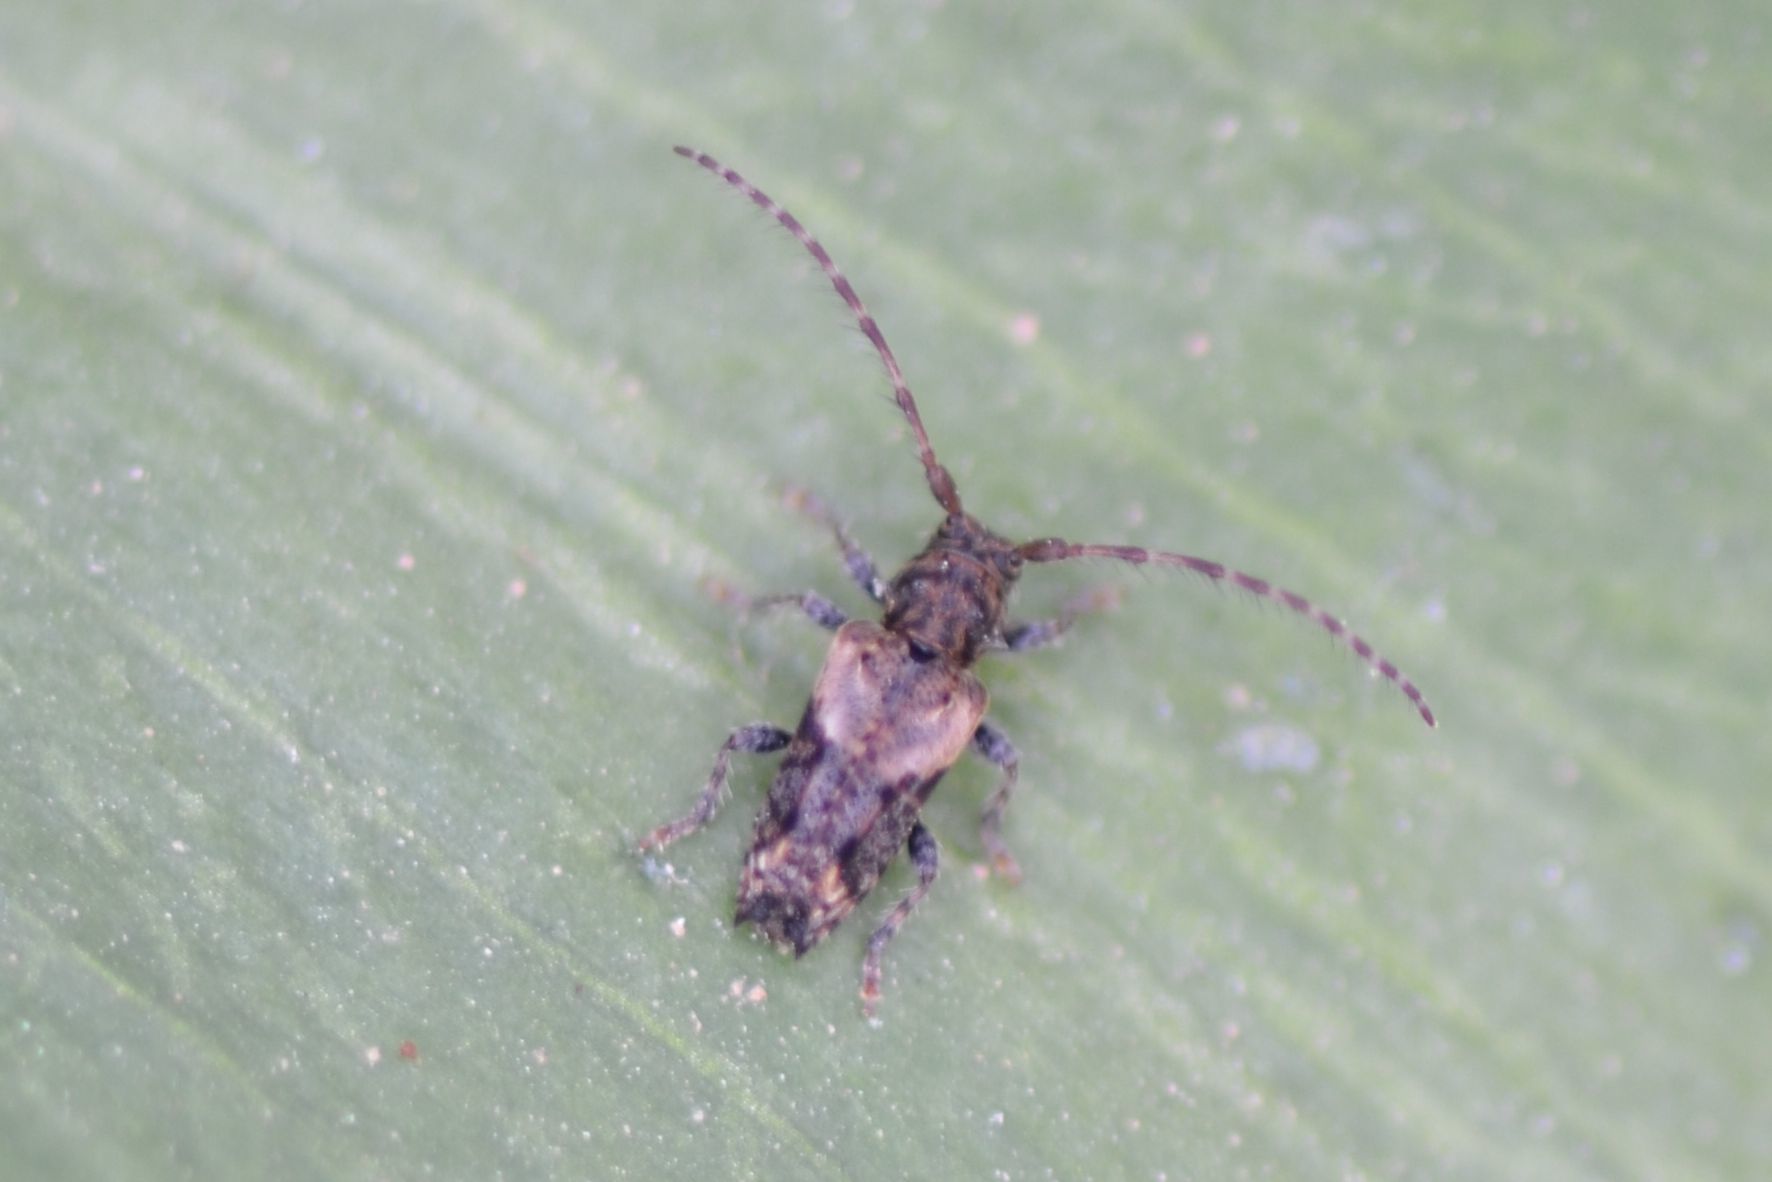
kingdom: Animalia
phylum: Arthropoda
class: Insecta
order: Coleoptera
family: Cerambycidae
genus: Pogonocherus
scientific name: Pogonocherus hispidus
